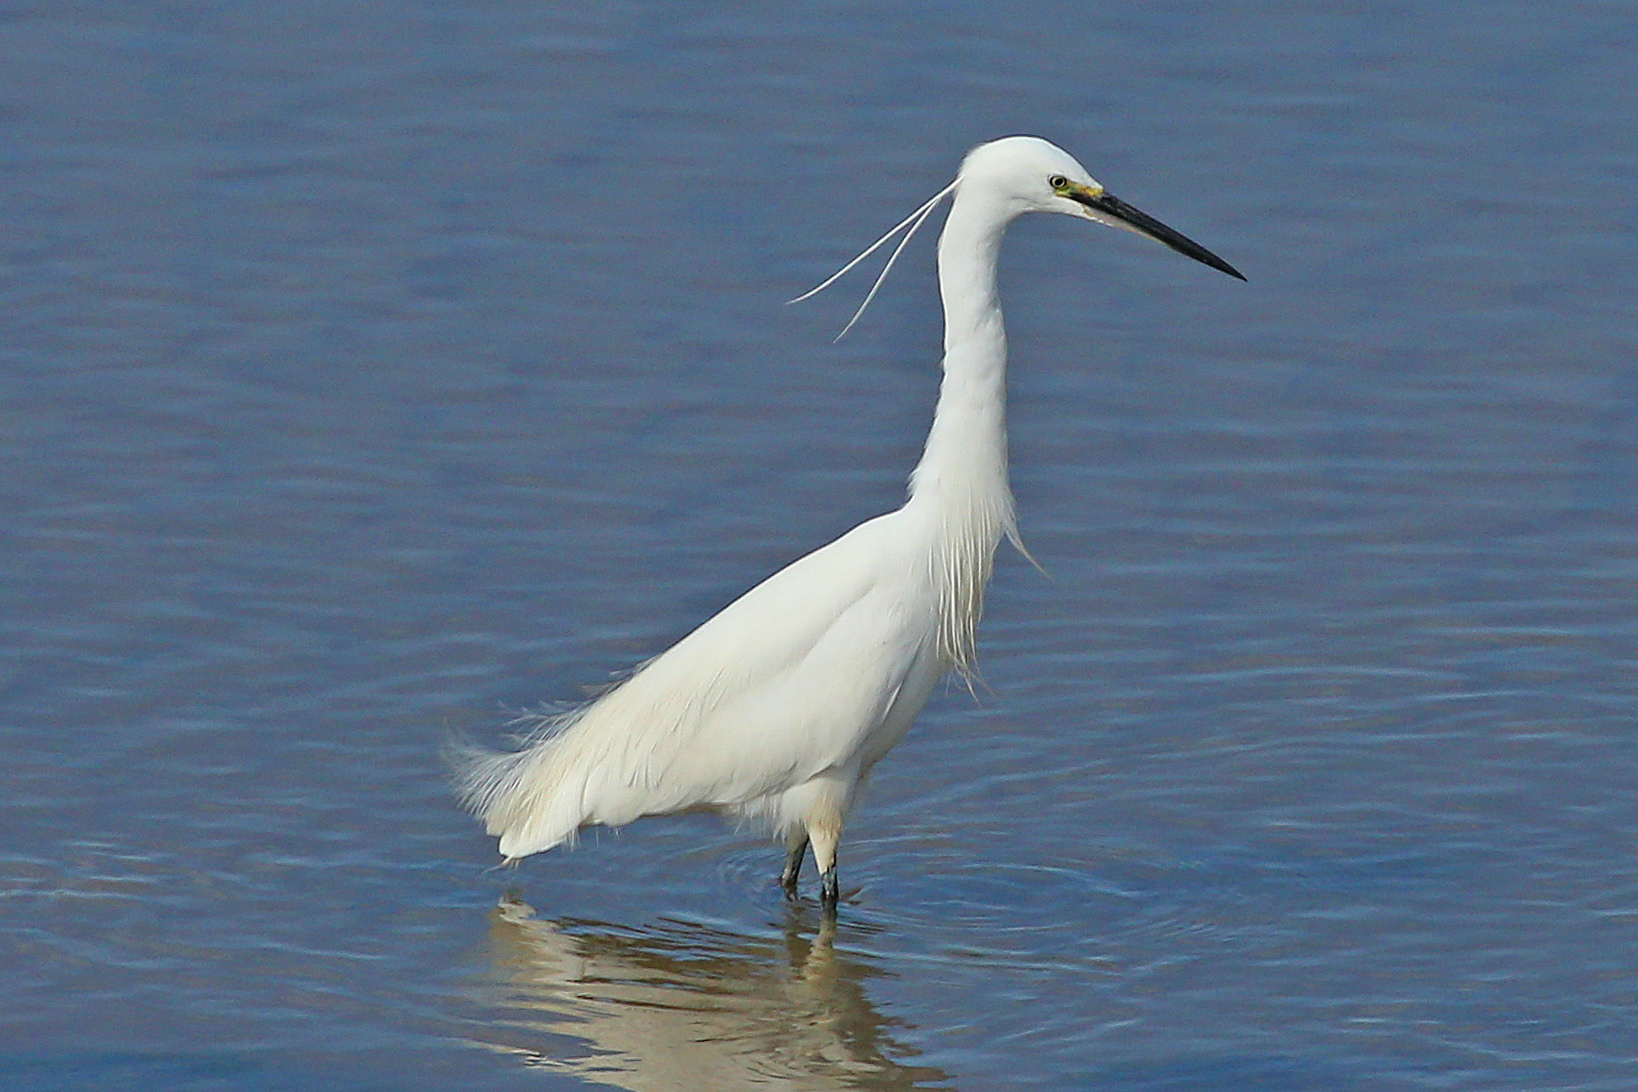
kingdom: Animalia
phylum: Chordata
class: Aves
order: Pelecaniformes
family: Ardeidae
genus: Egretta
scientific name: Egretta garzetta
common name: Little egret
